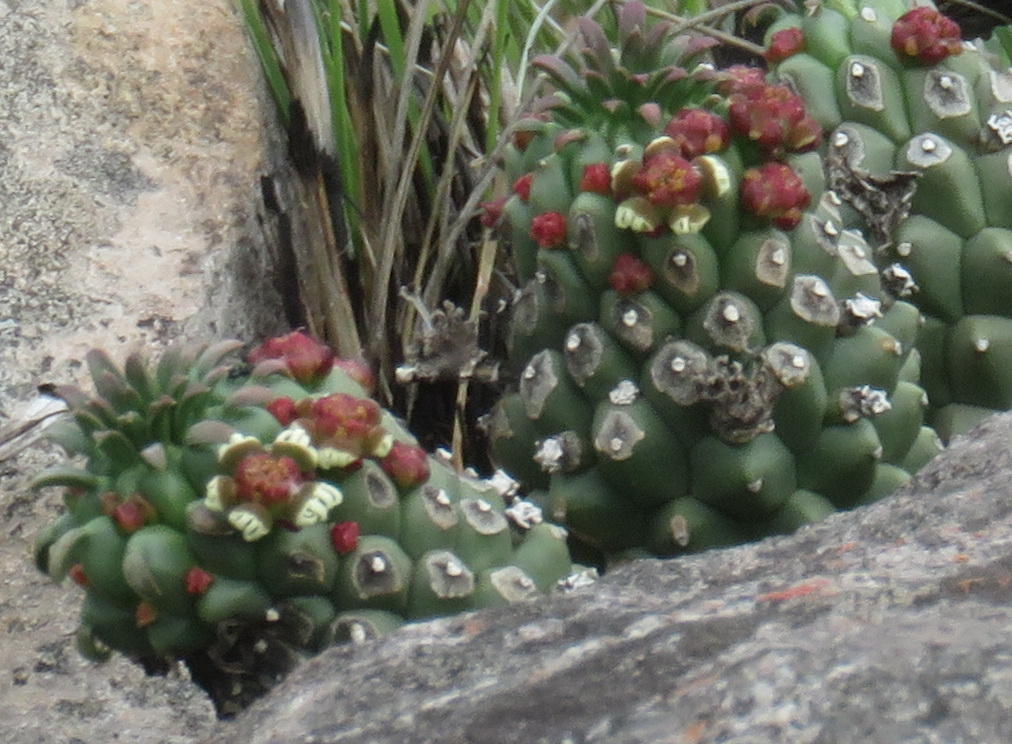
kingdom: Plantae
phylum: Tracheophyta
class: Magnoliopsida
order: Malpighiales
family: Euphorbiaceae
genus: Euphorbia
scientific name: Euphorbia caput-medusae
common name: Medusa's-head
